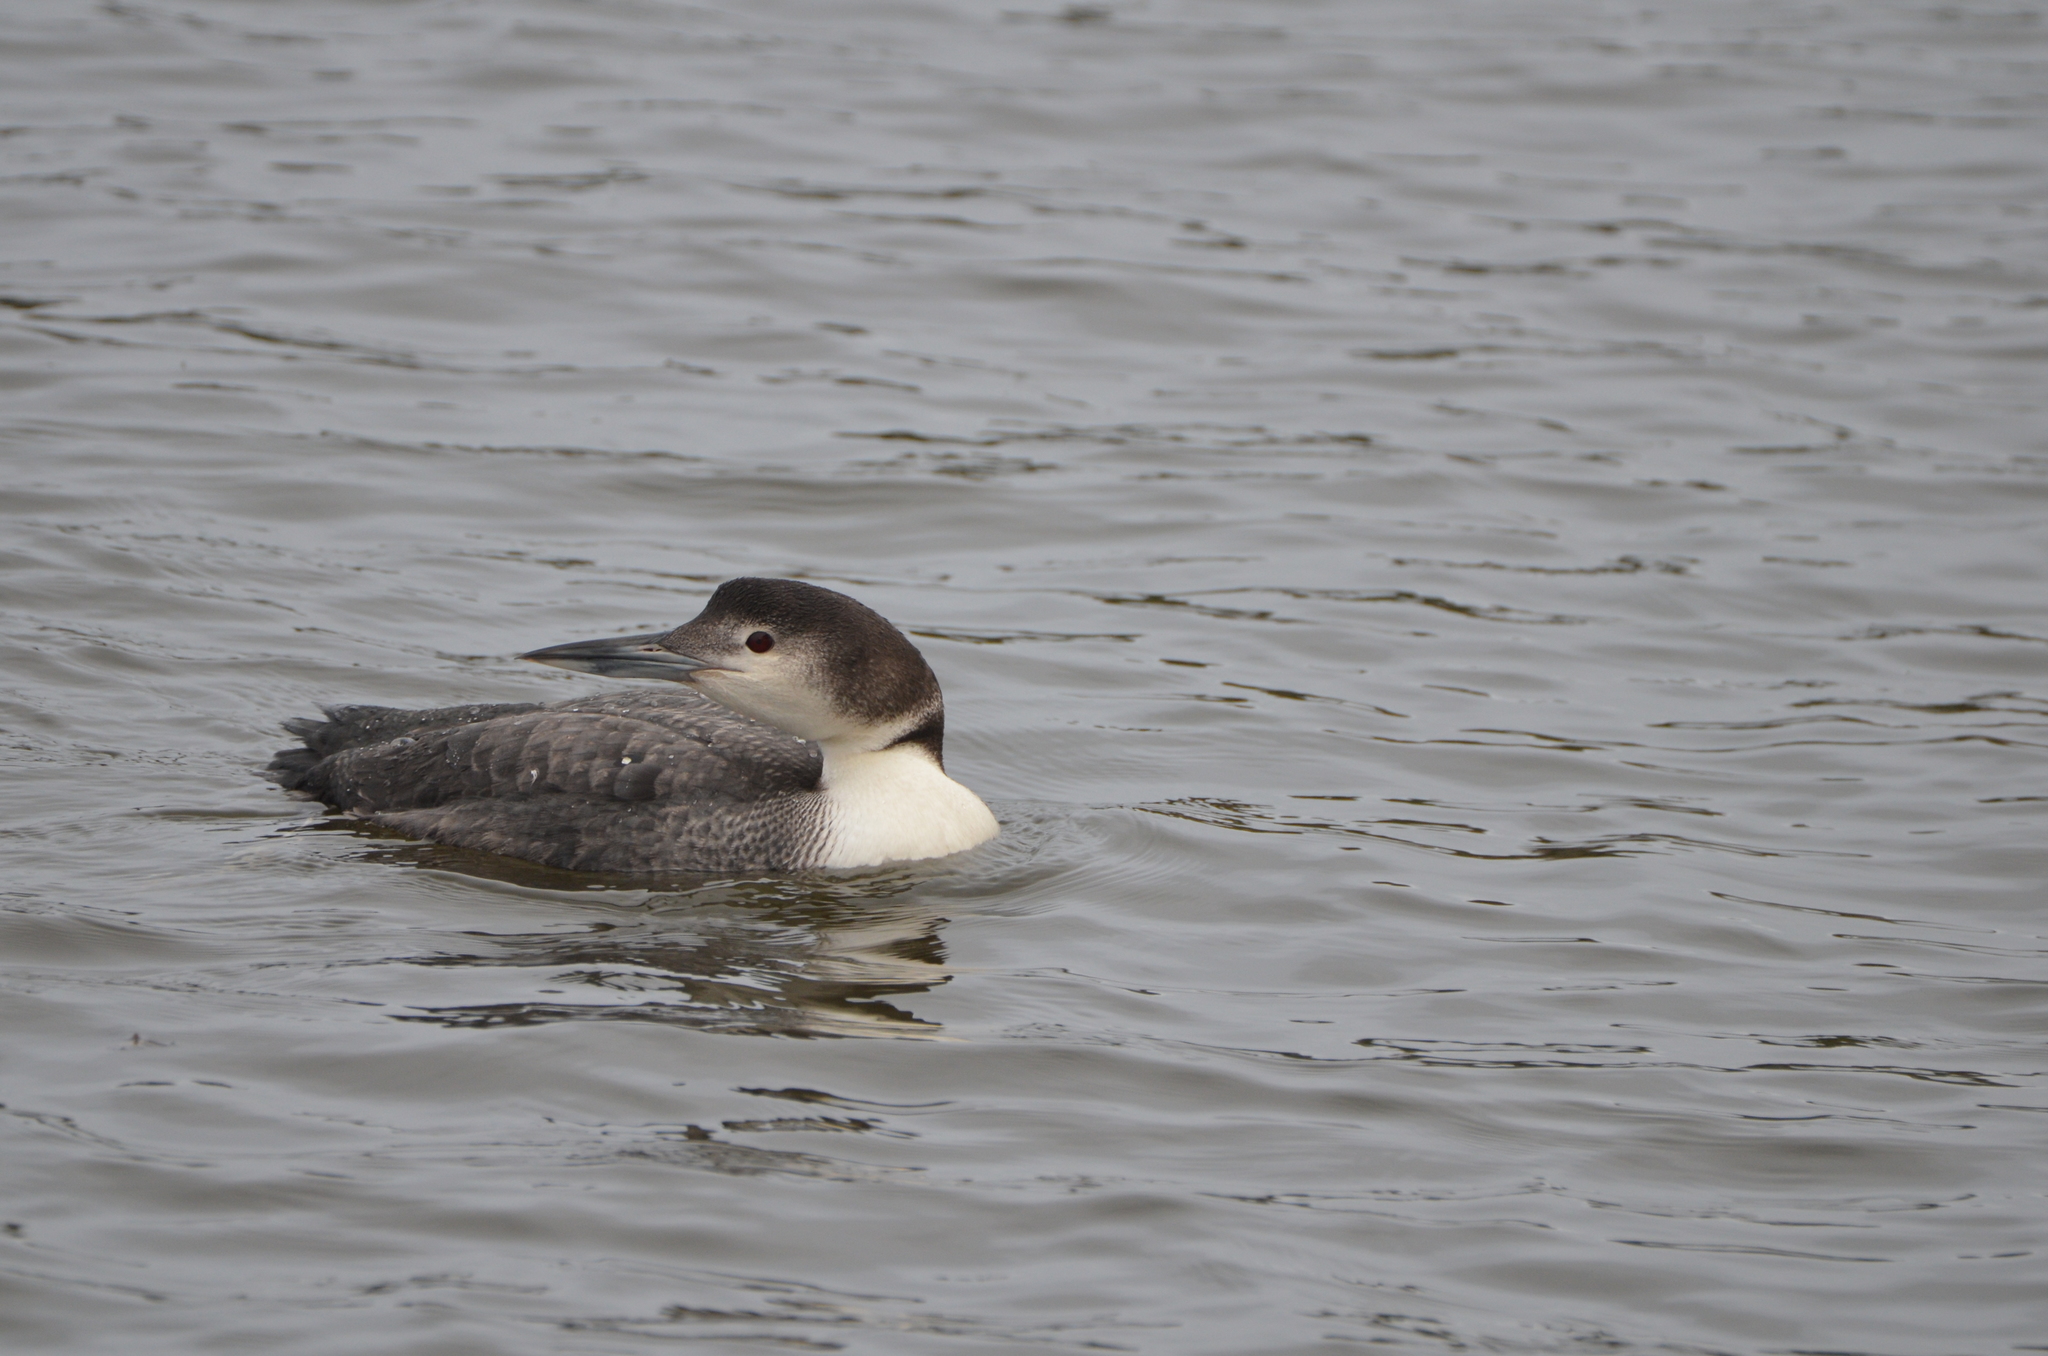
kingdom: Animalia
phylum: Chordata
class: Aves
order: Gaviiformes
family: Gaviidae
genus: Gavia
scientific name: Gavia immer
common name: Common loon
